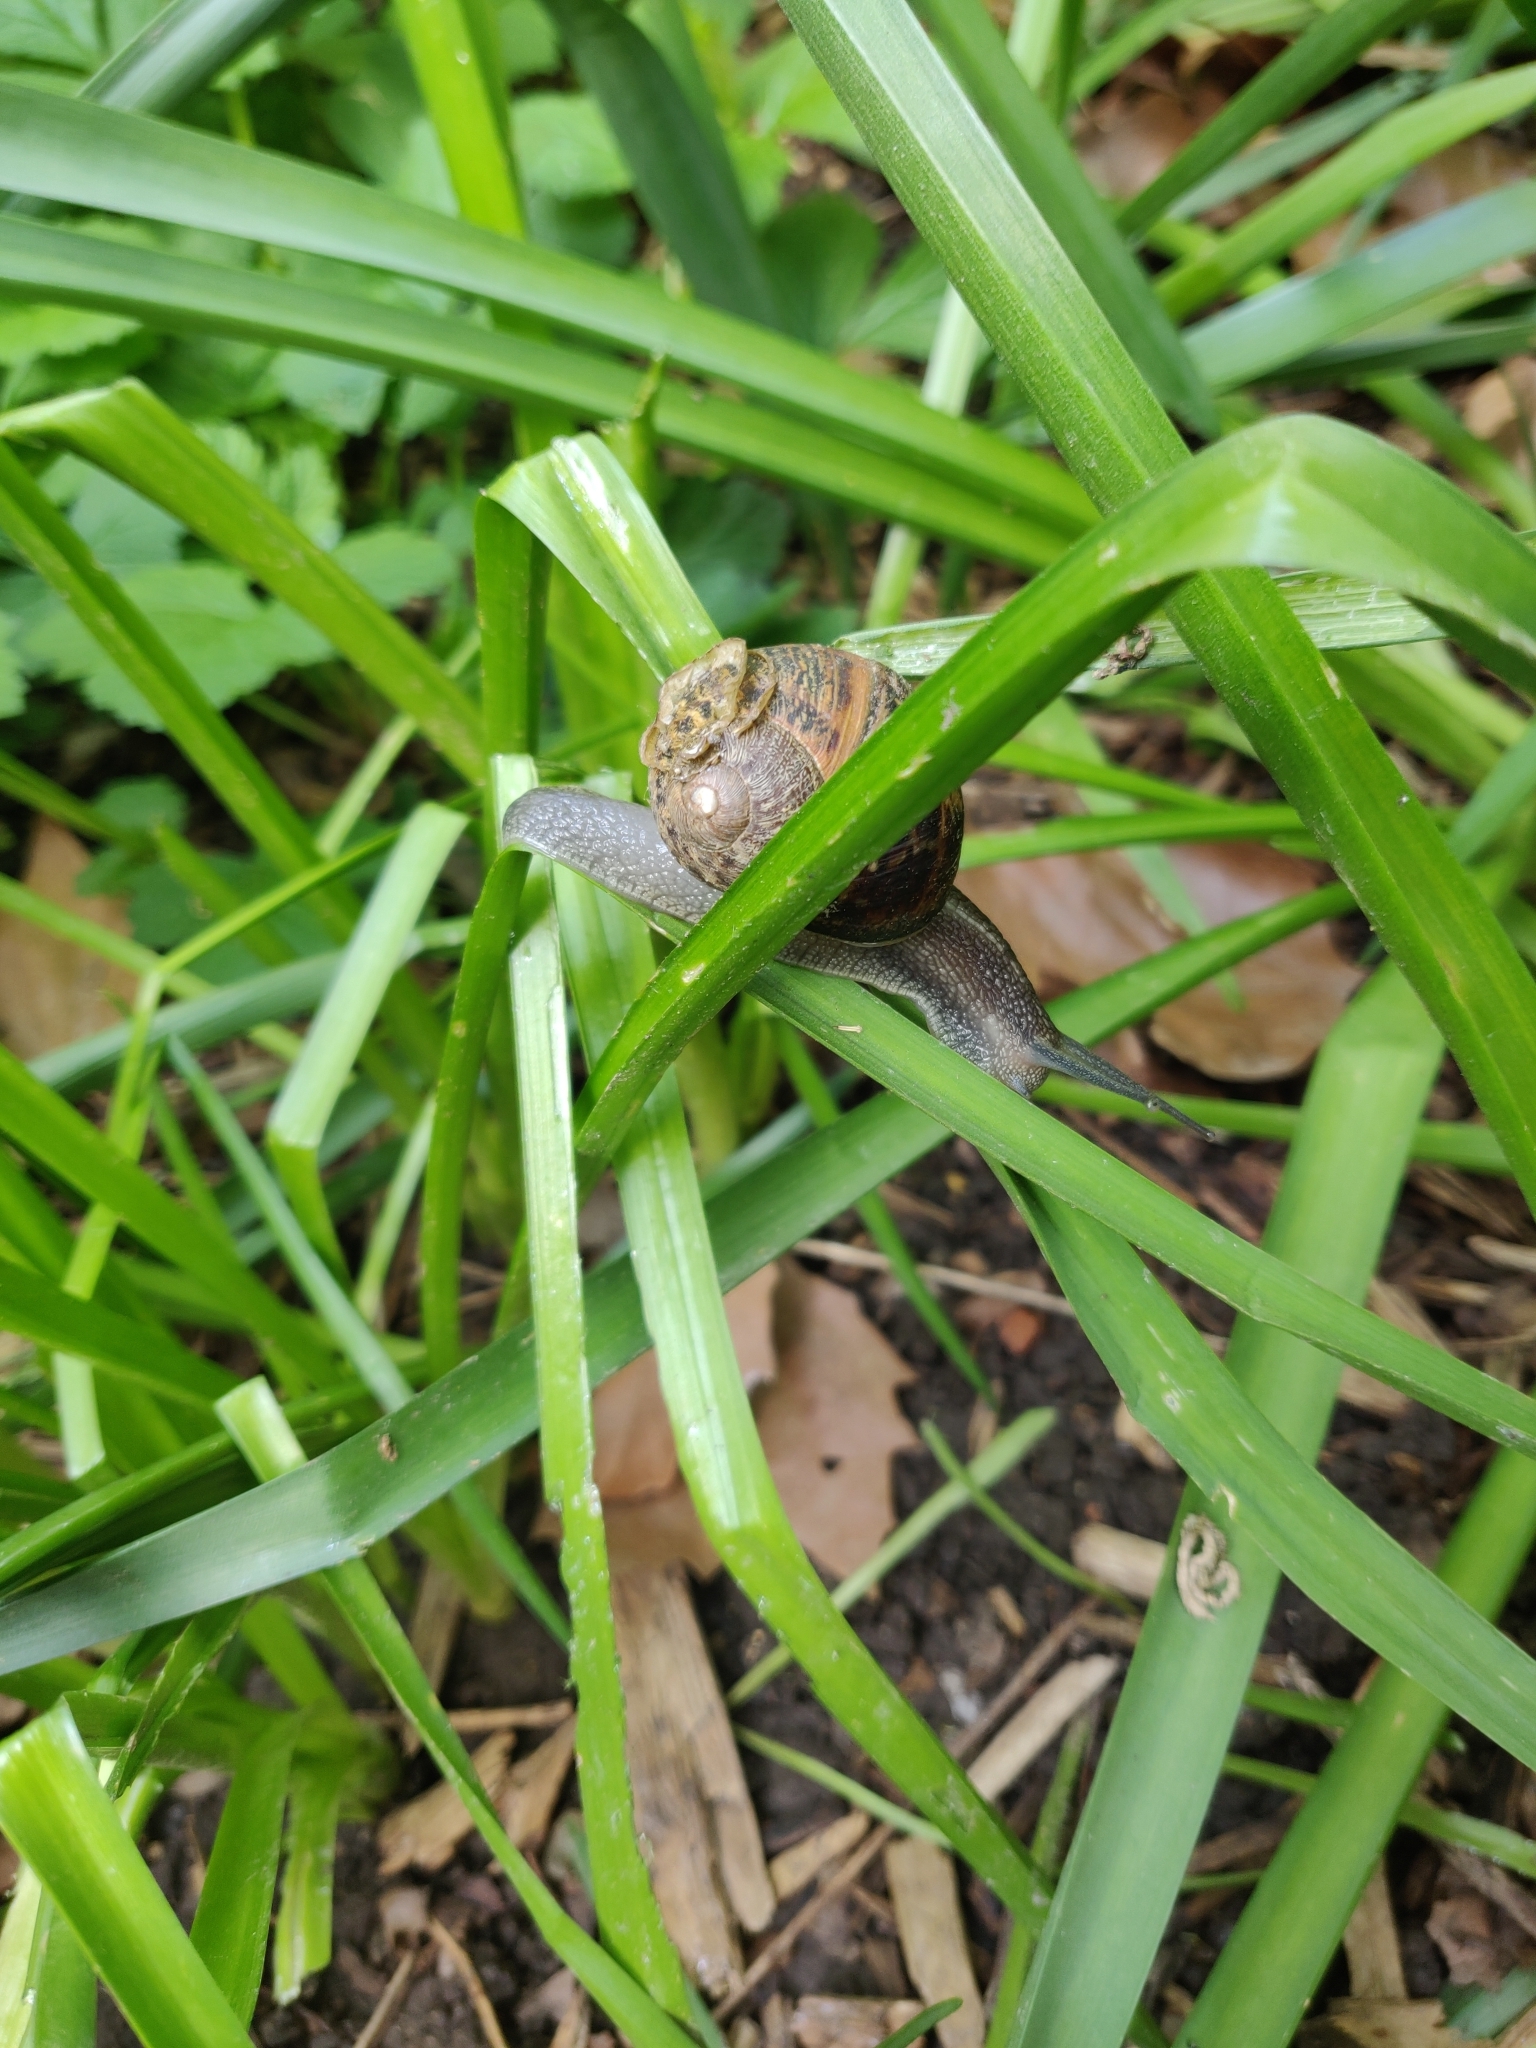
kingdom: Animalia
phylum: Mollusca
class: Gastropoda
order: Stylommatophora
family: Helicidae
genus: Cornu
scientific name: Cornu aspersum
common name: Brown garden snail
